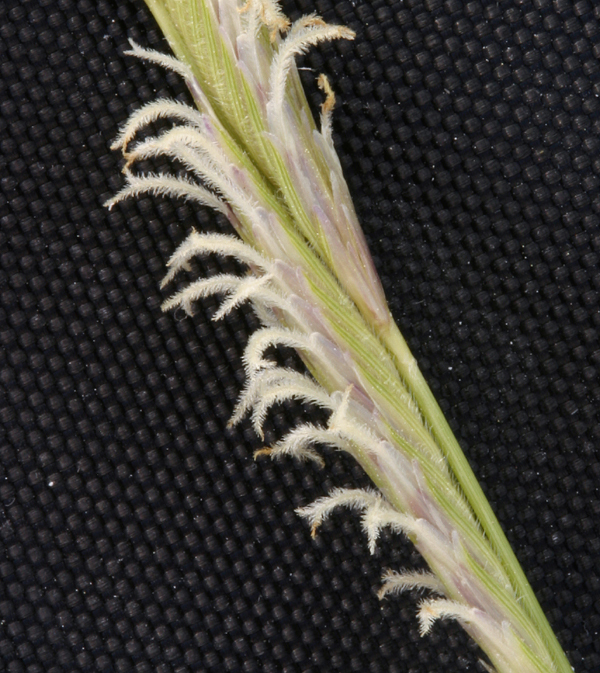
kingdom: Plantae
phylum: Tracheophyta
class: Liliopsida
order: Poales
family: Poaceae
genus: Sporobolus
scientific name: Sporobolus hookerianus
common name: Alkali cordgrass
